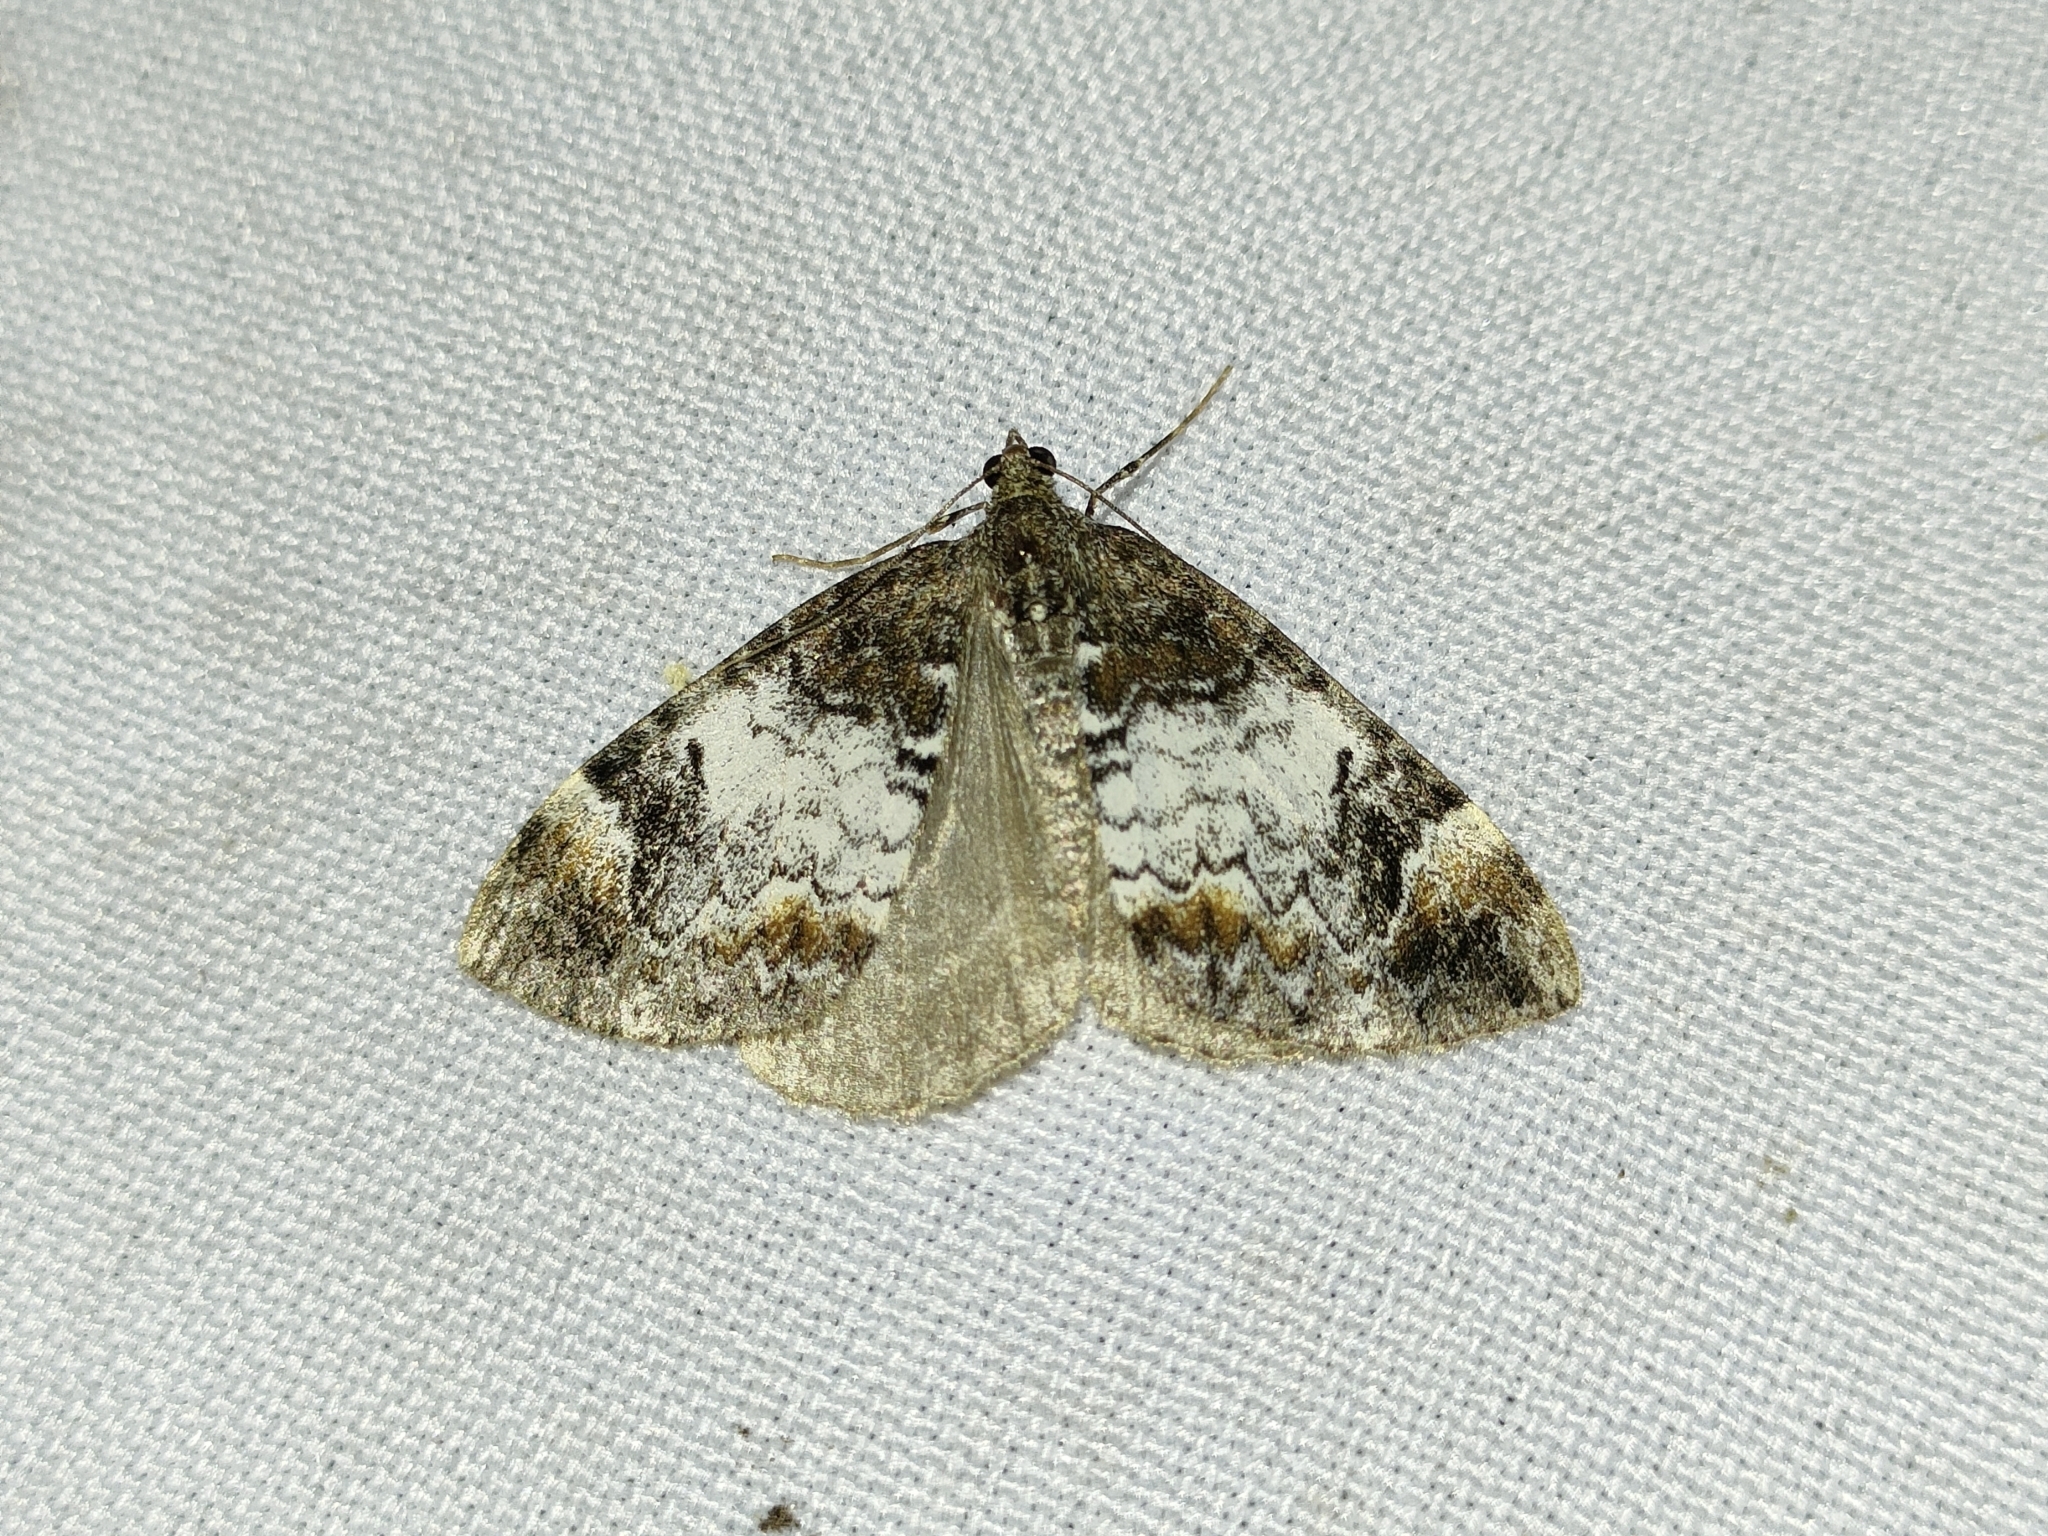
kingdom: Animalia
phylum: Arthropoda
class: Insecta
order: Lepidoptera
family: Geometridae
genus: Dysstroma
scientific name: Dysstroma truncata
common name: Common marbled carpet
